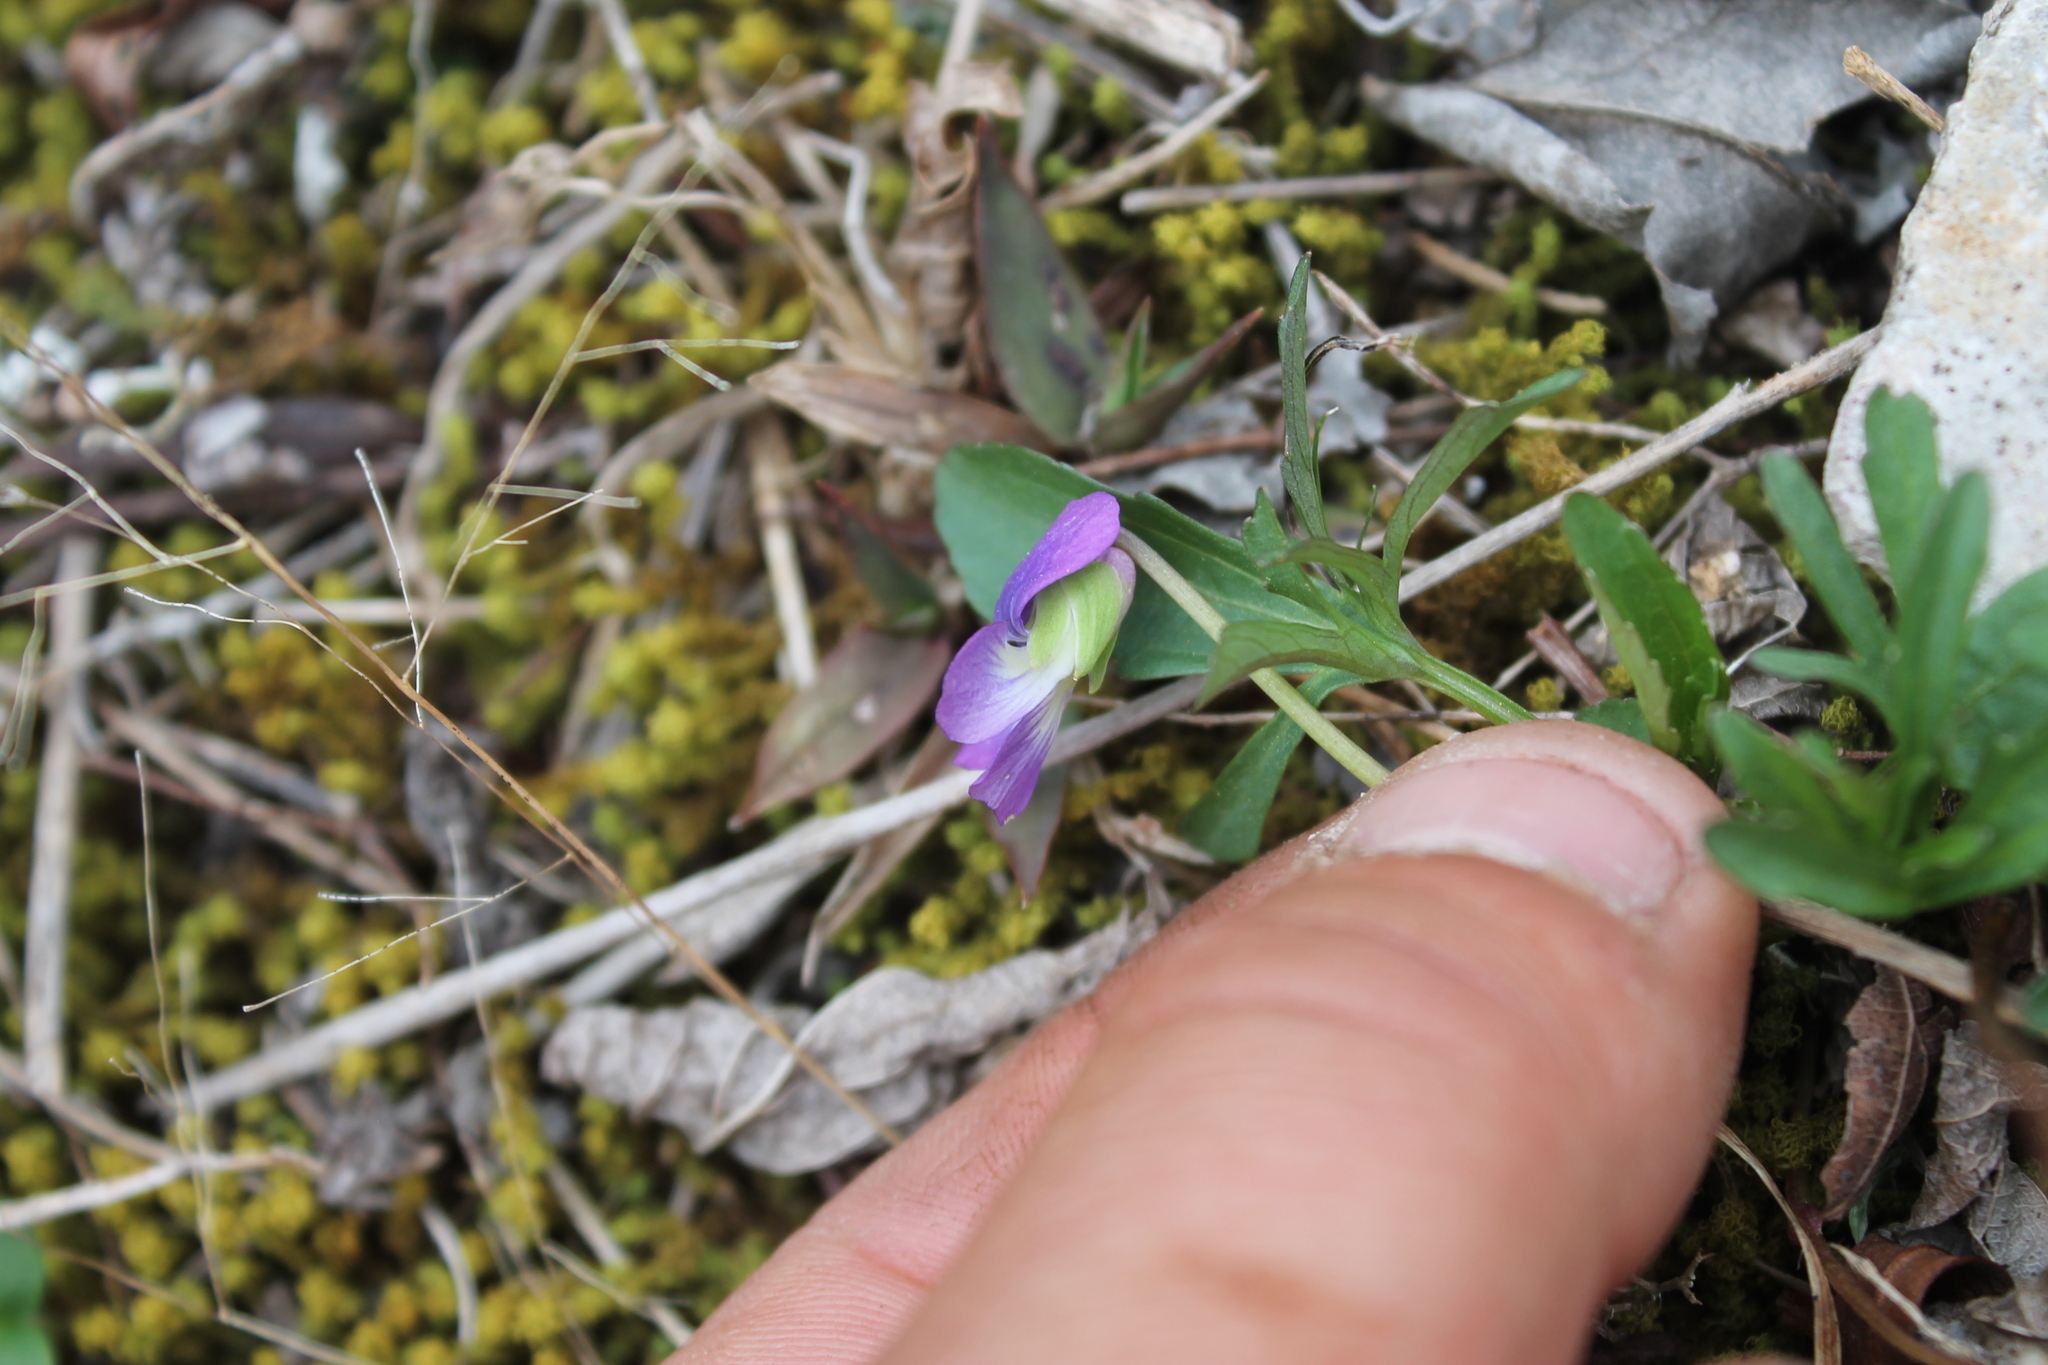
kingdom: Plantae
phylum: Tracheophyta
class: Magnoliopsida
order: Malpighiales
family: Violaceae
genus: Viola
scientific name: Viola egglestonii
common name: Glade violet
